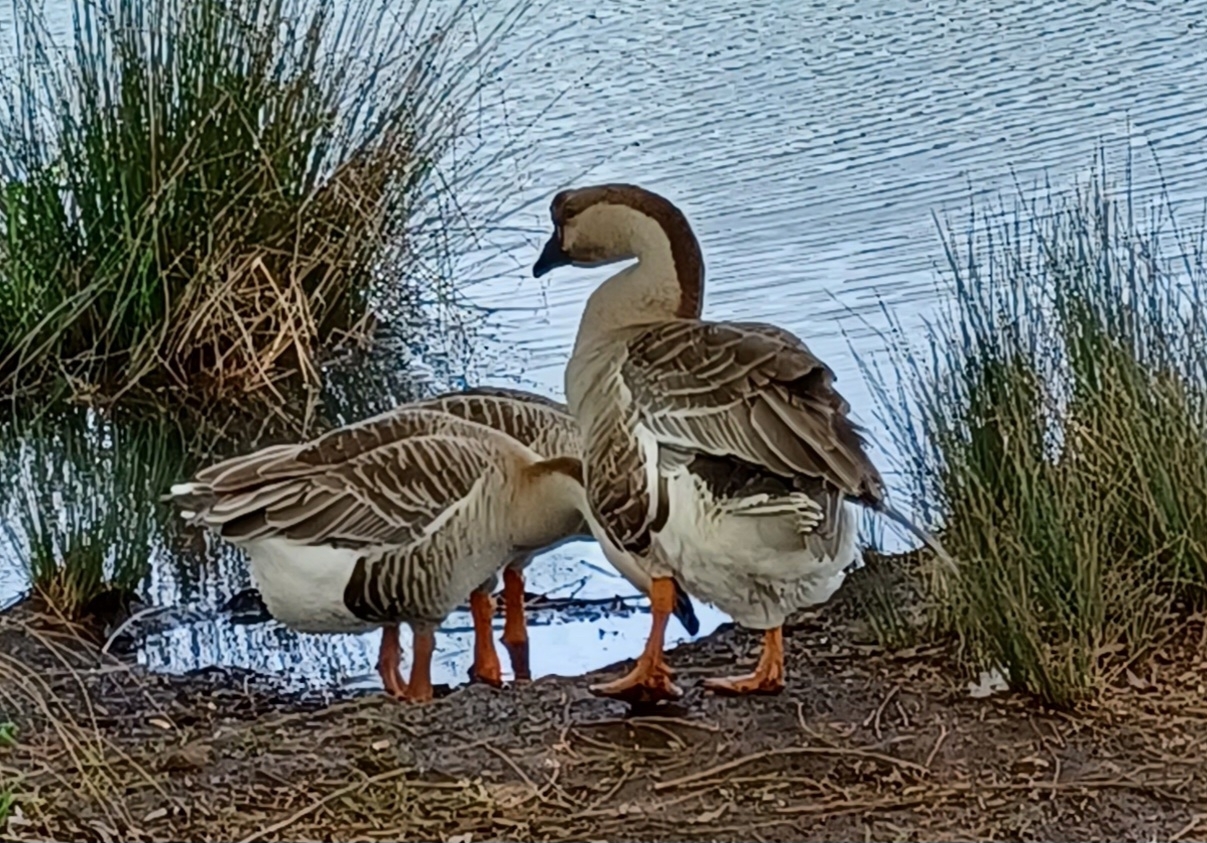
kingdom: Animalia
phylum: Chordata
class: Aves
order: Anseriformes
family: Anatidae
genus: Anser
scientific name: Anser cygnoides
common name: Swan goose
